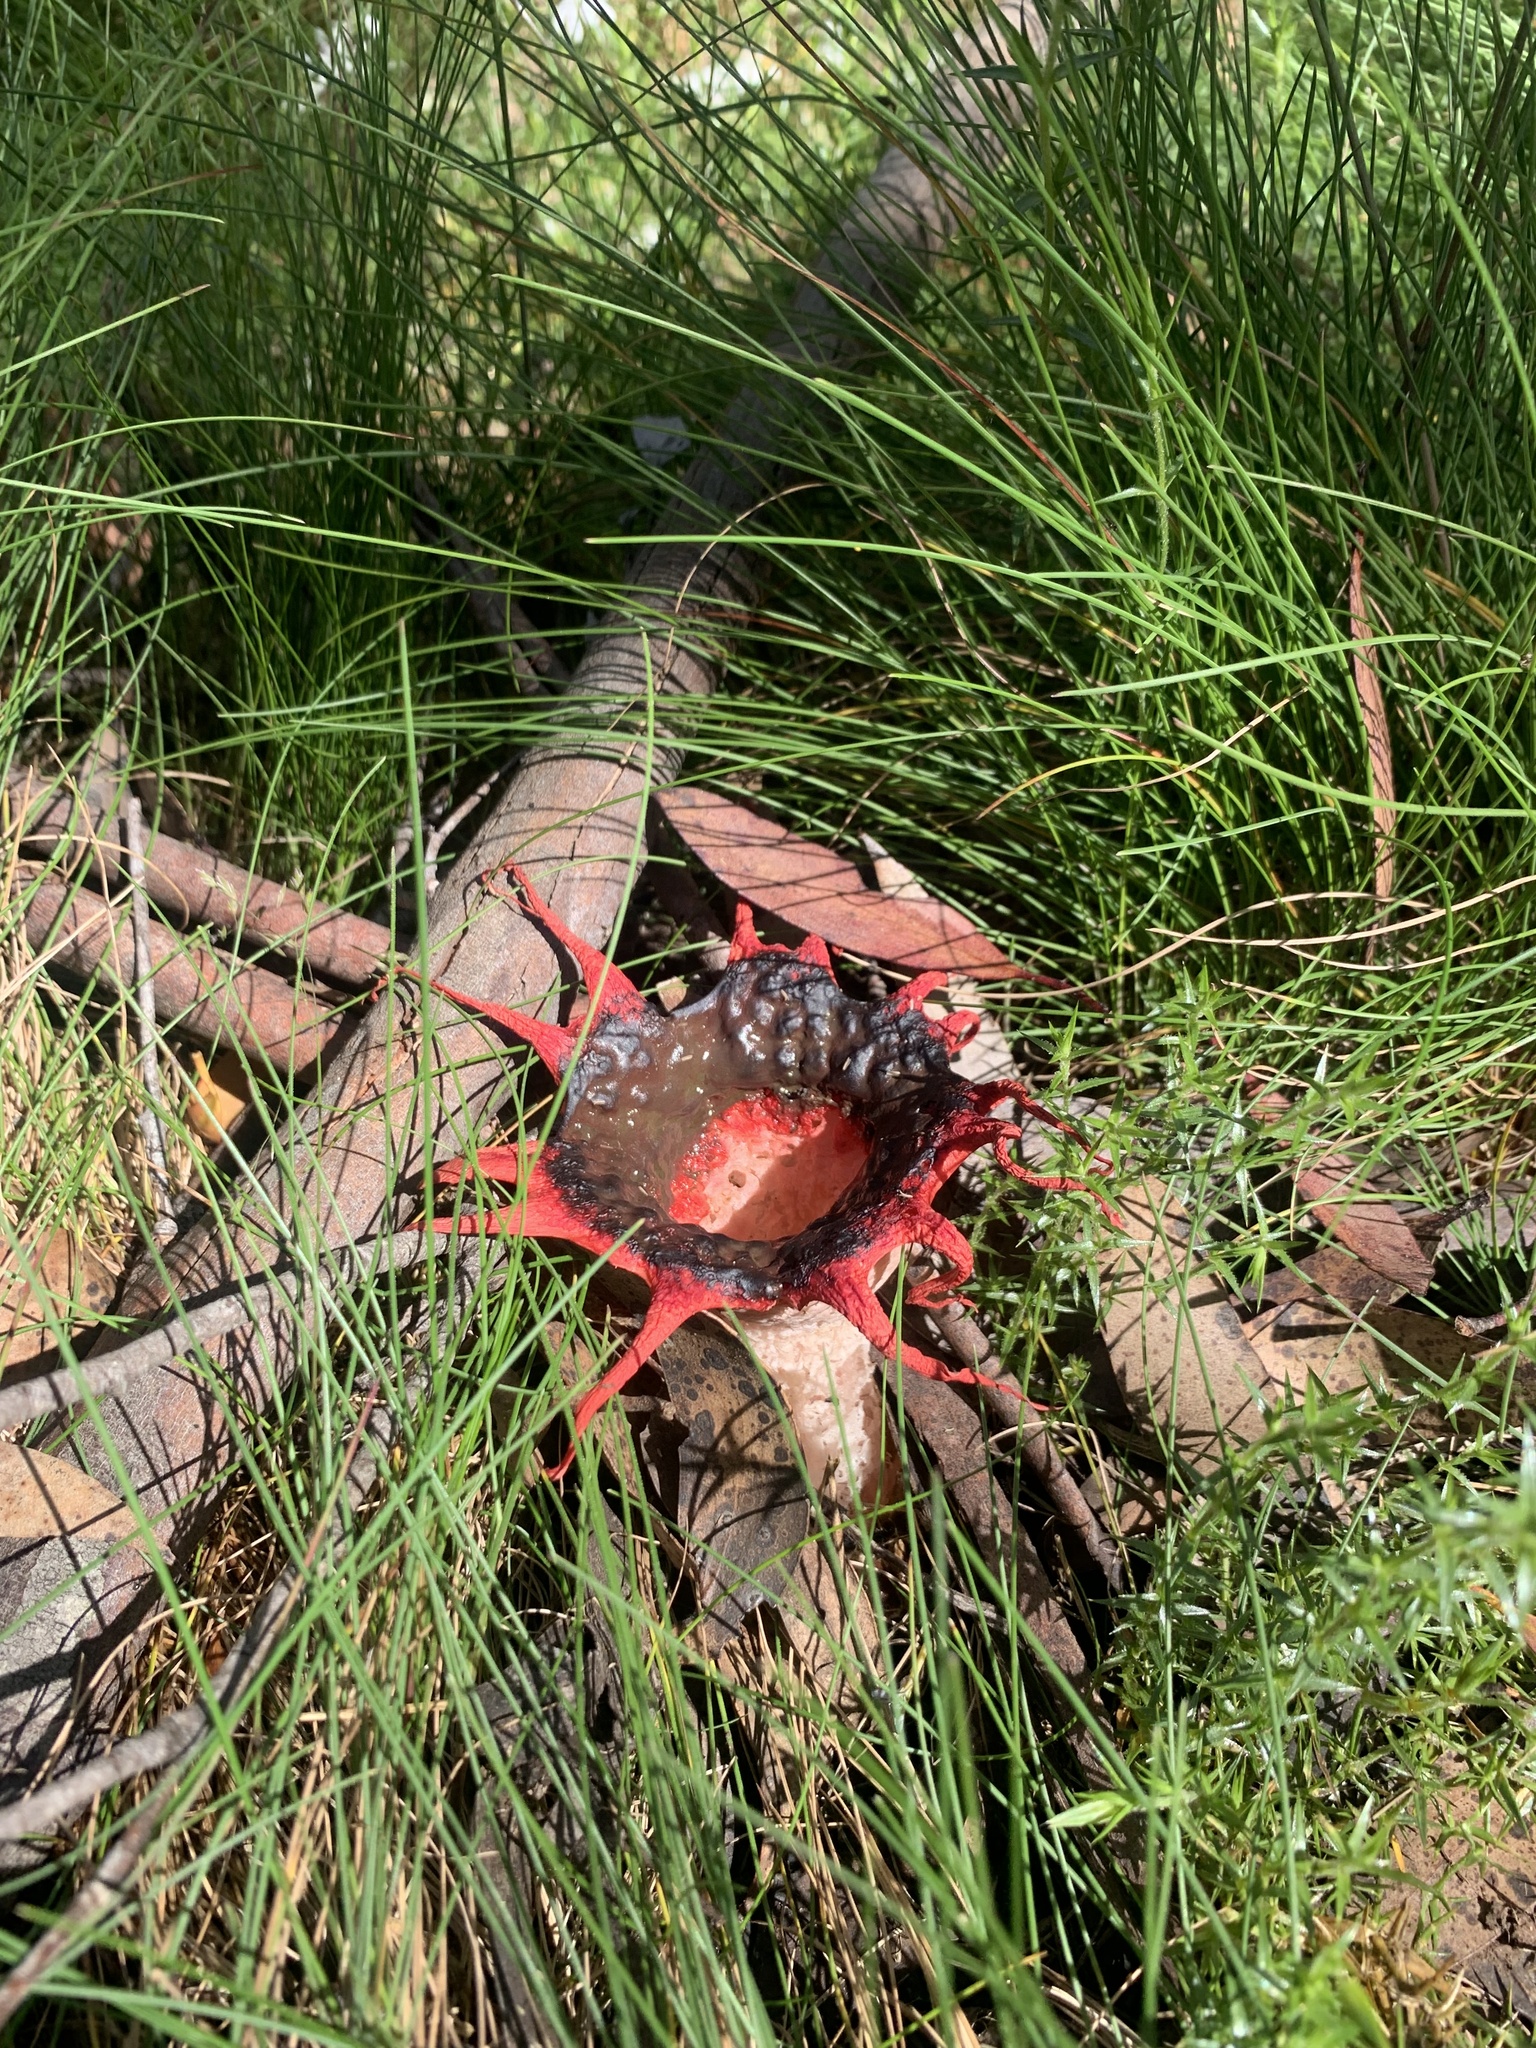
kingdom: Fungi
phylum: Basidiomycota
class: Agaricomycetes
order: Phallales
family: Phallaceae
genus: Aseroe
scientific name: Aseroe rubra
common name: Starfish fungus
